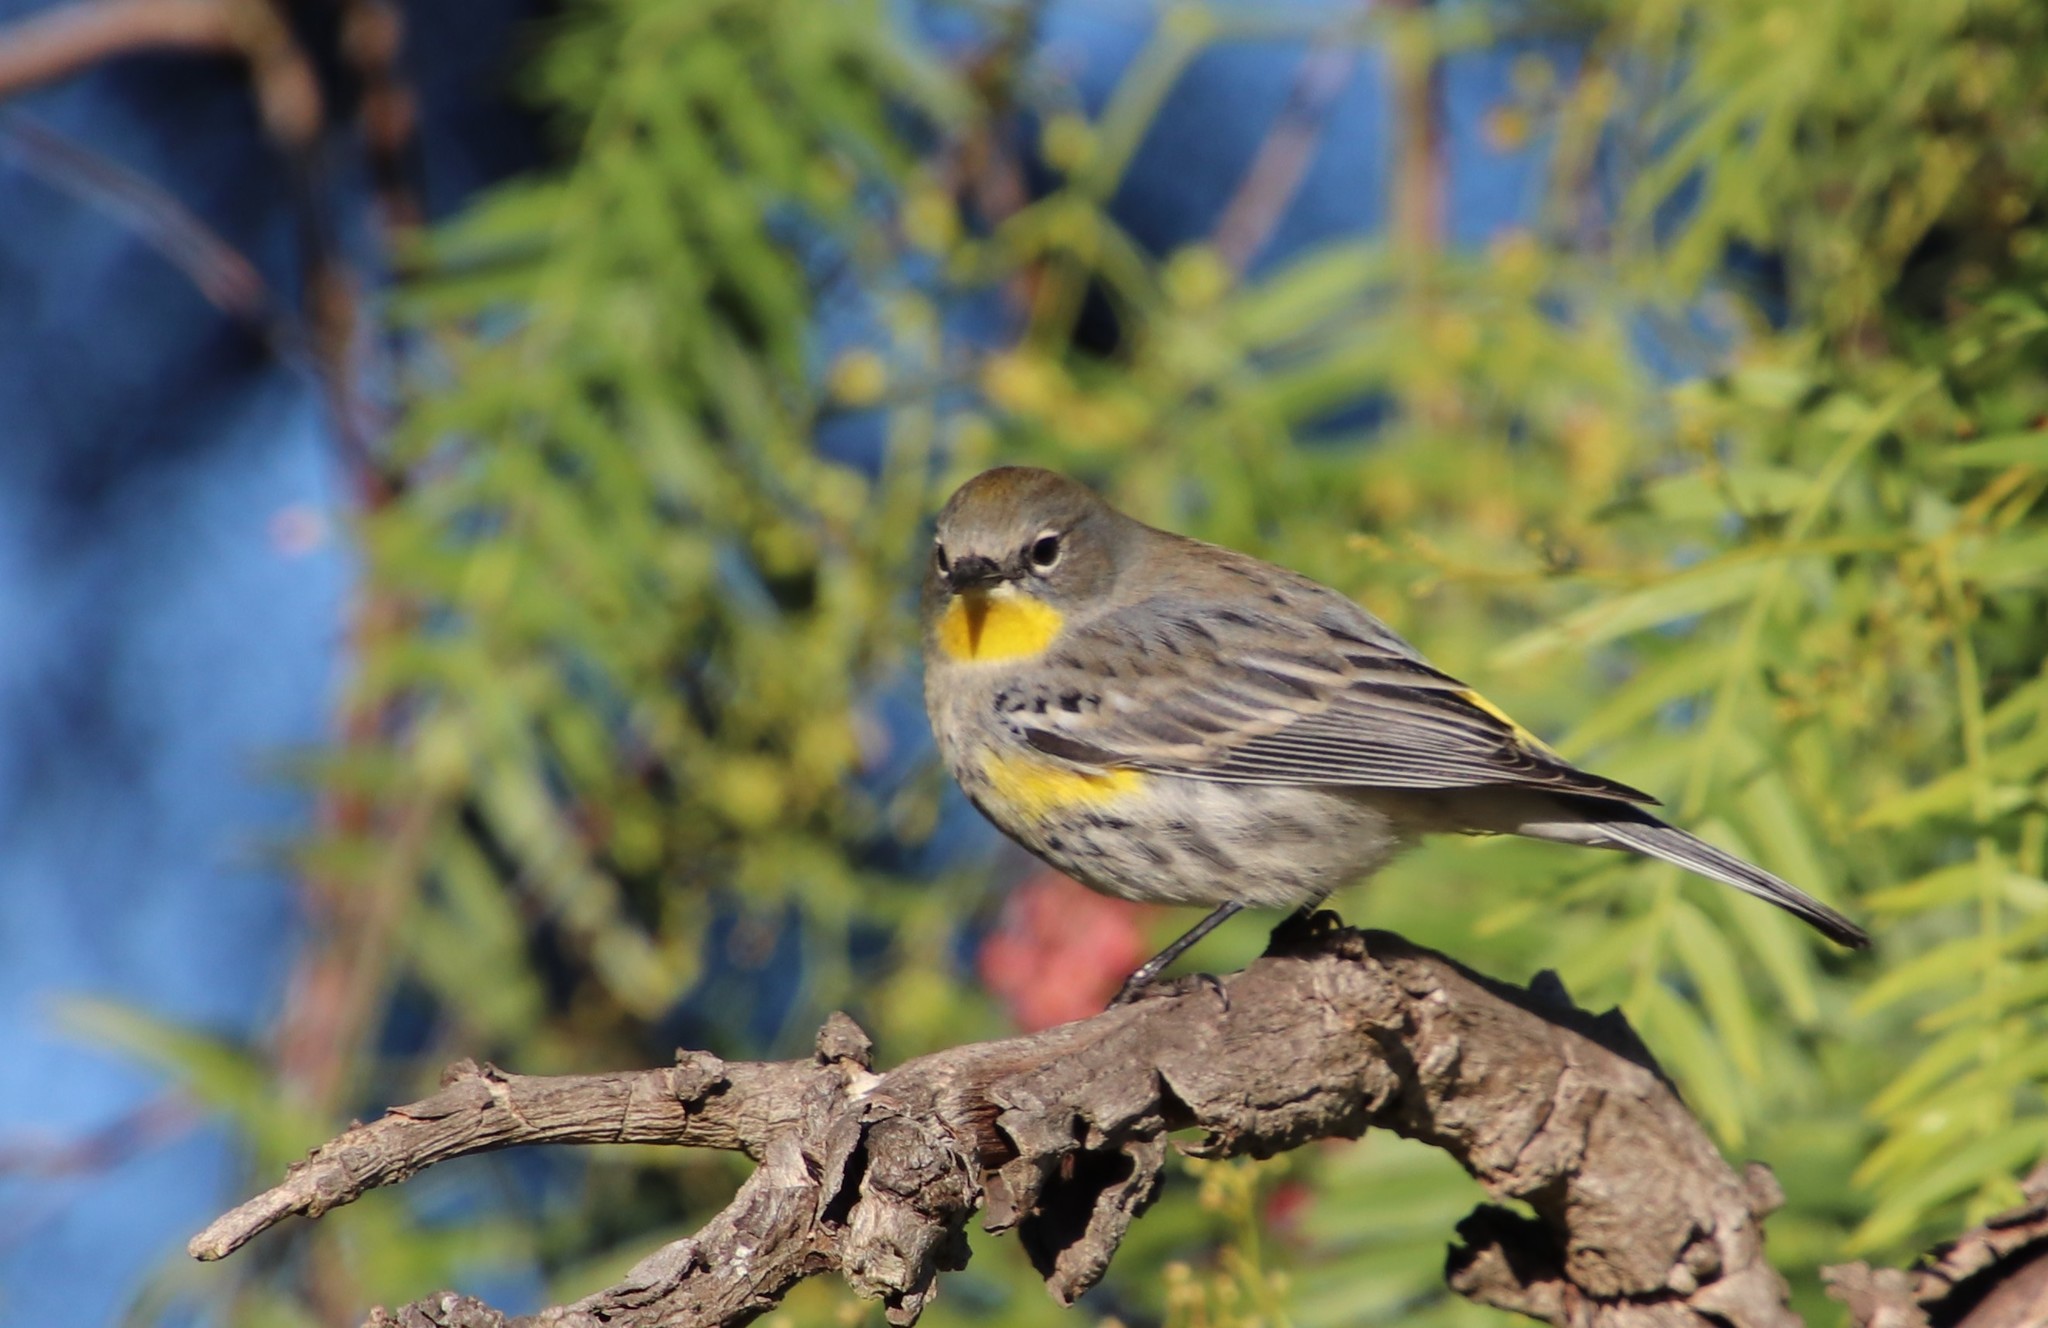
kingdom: Animalia
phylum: Chordata
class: Aves
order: Passeriformes
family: Parulidae
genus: Setophaga
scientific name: Setophaga auduboni
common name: Audubon's warbler
